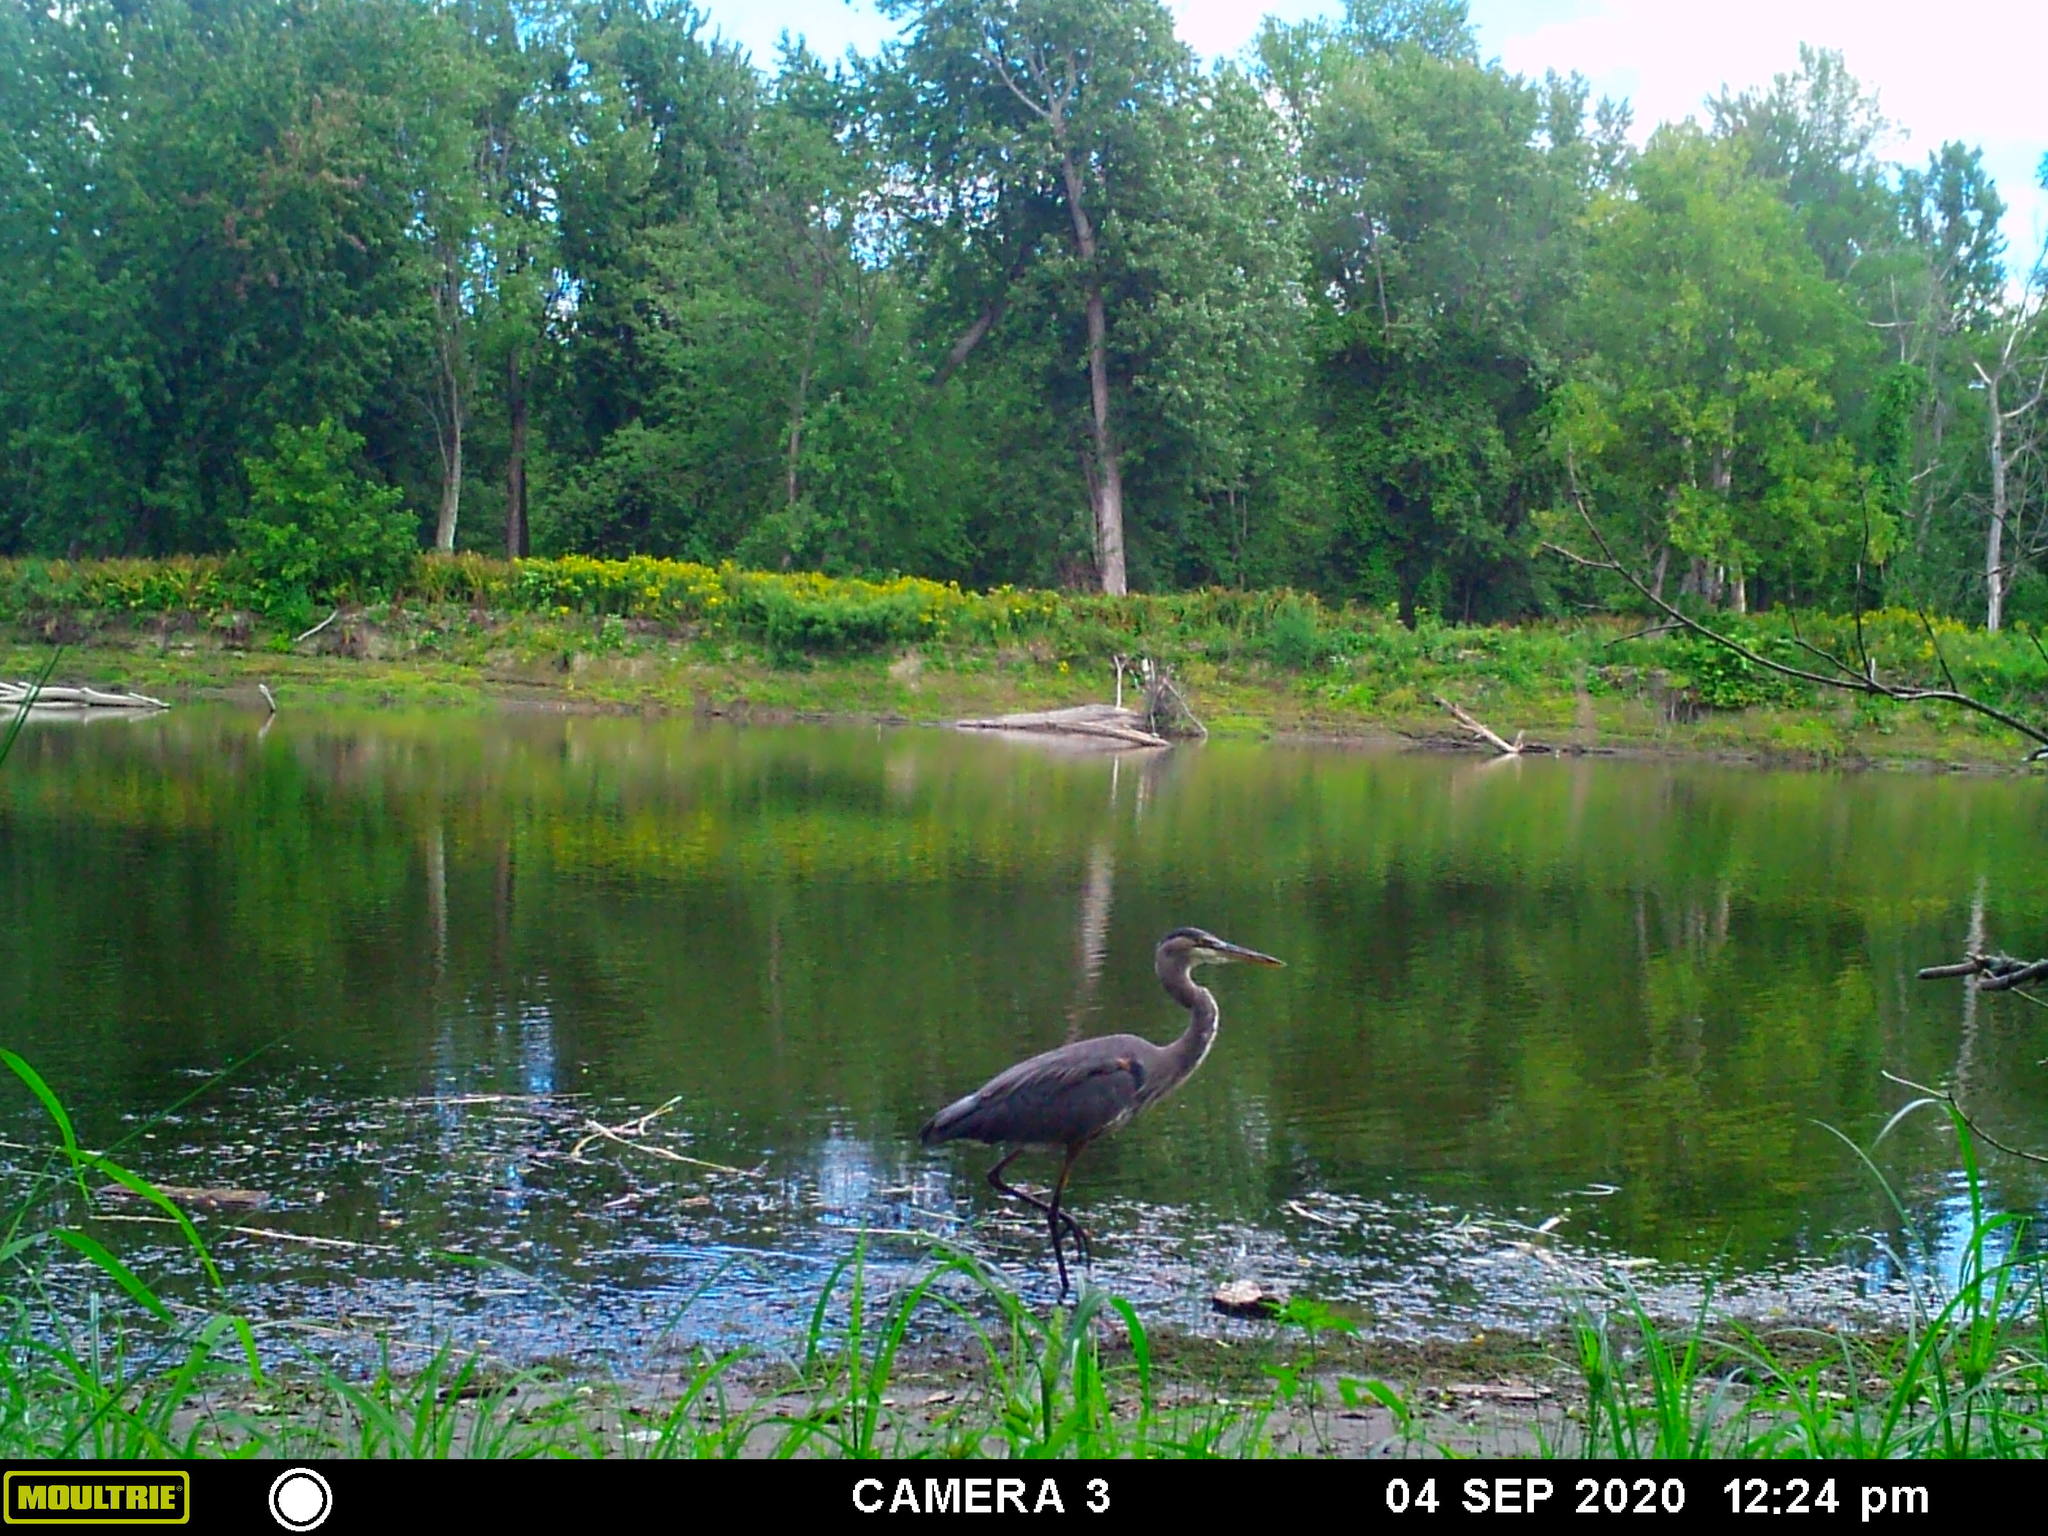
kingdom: Animalia
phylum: Chordata
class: Aves
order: Pelecaniformes
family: Ardeidae
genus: Ardea
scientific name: Ardea herodias
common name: Great blue heron
